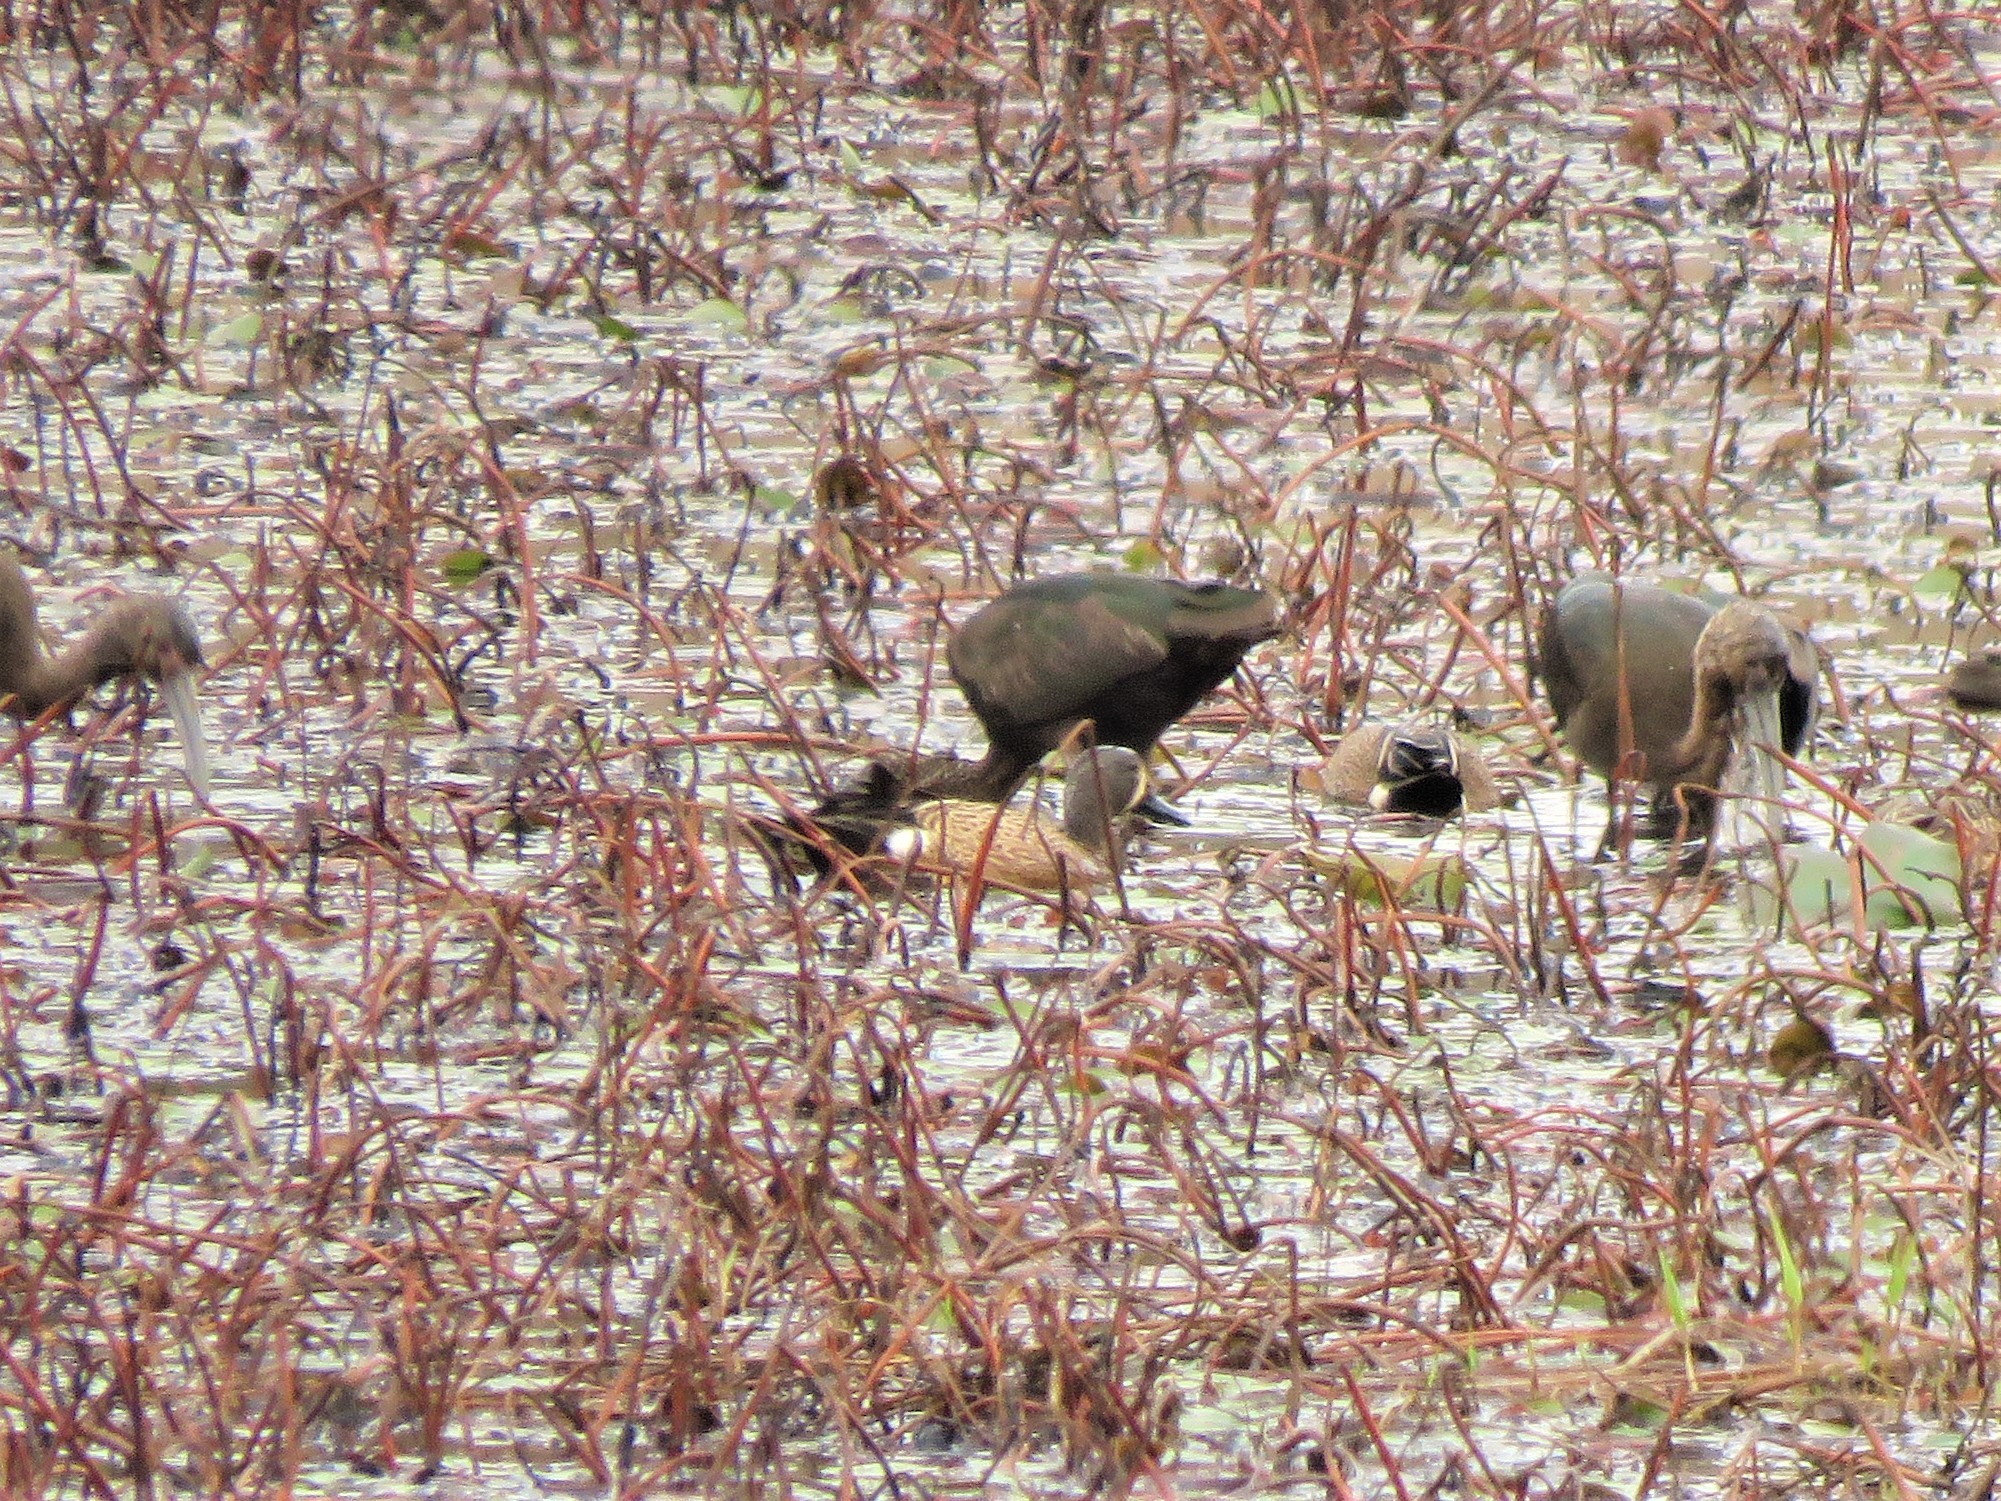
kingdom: Animalia
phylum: Chordata
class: Aves
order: Anseriformes
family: Anatidae
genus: Spatula
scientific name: Spatula discors
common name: Blue-winged teal
